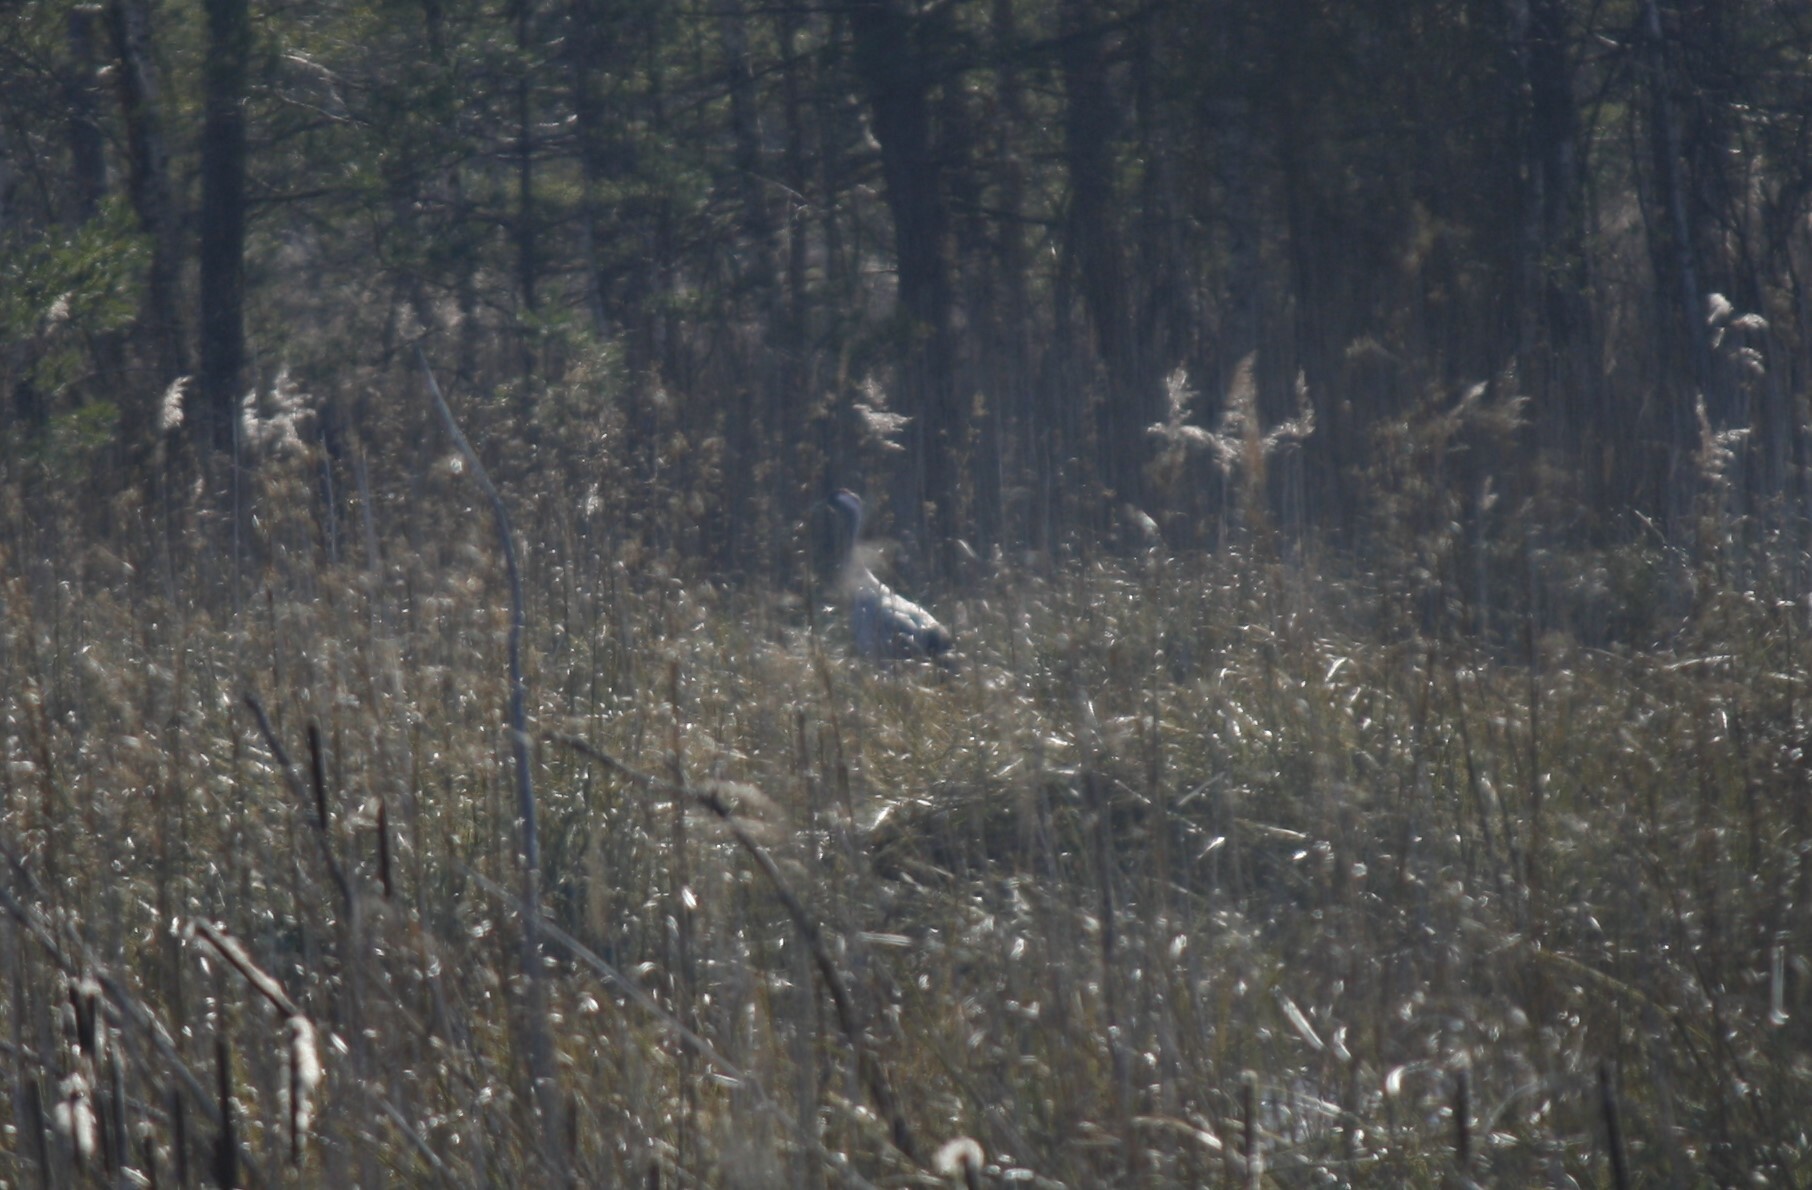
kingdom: Animalia
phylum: Chordata
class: Aves
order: Gruiformes
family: Gruidae
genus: Grus
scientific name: Grus grus
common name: Common crane
